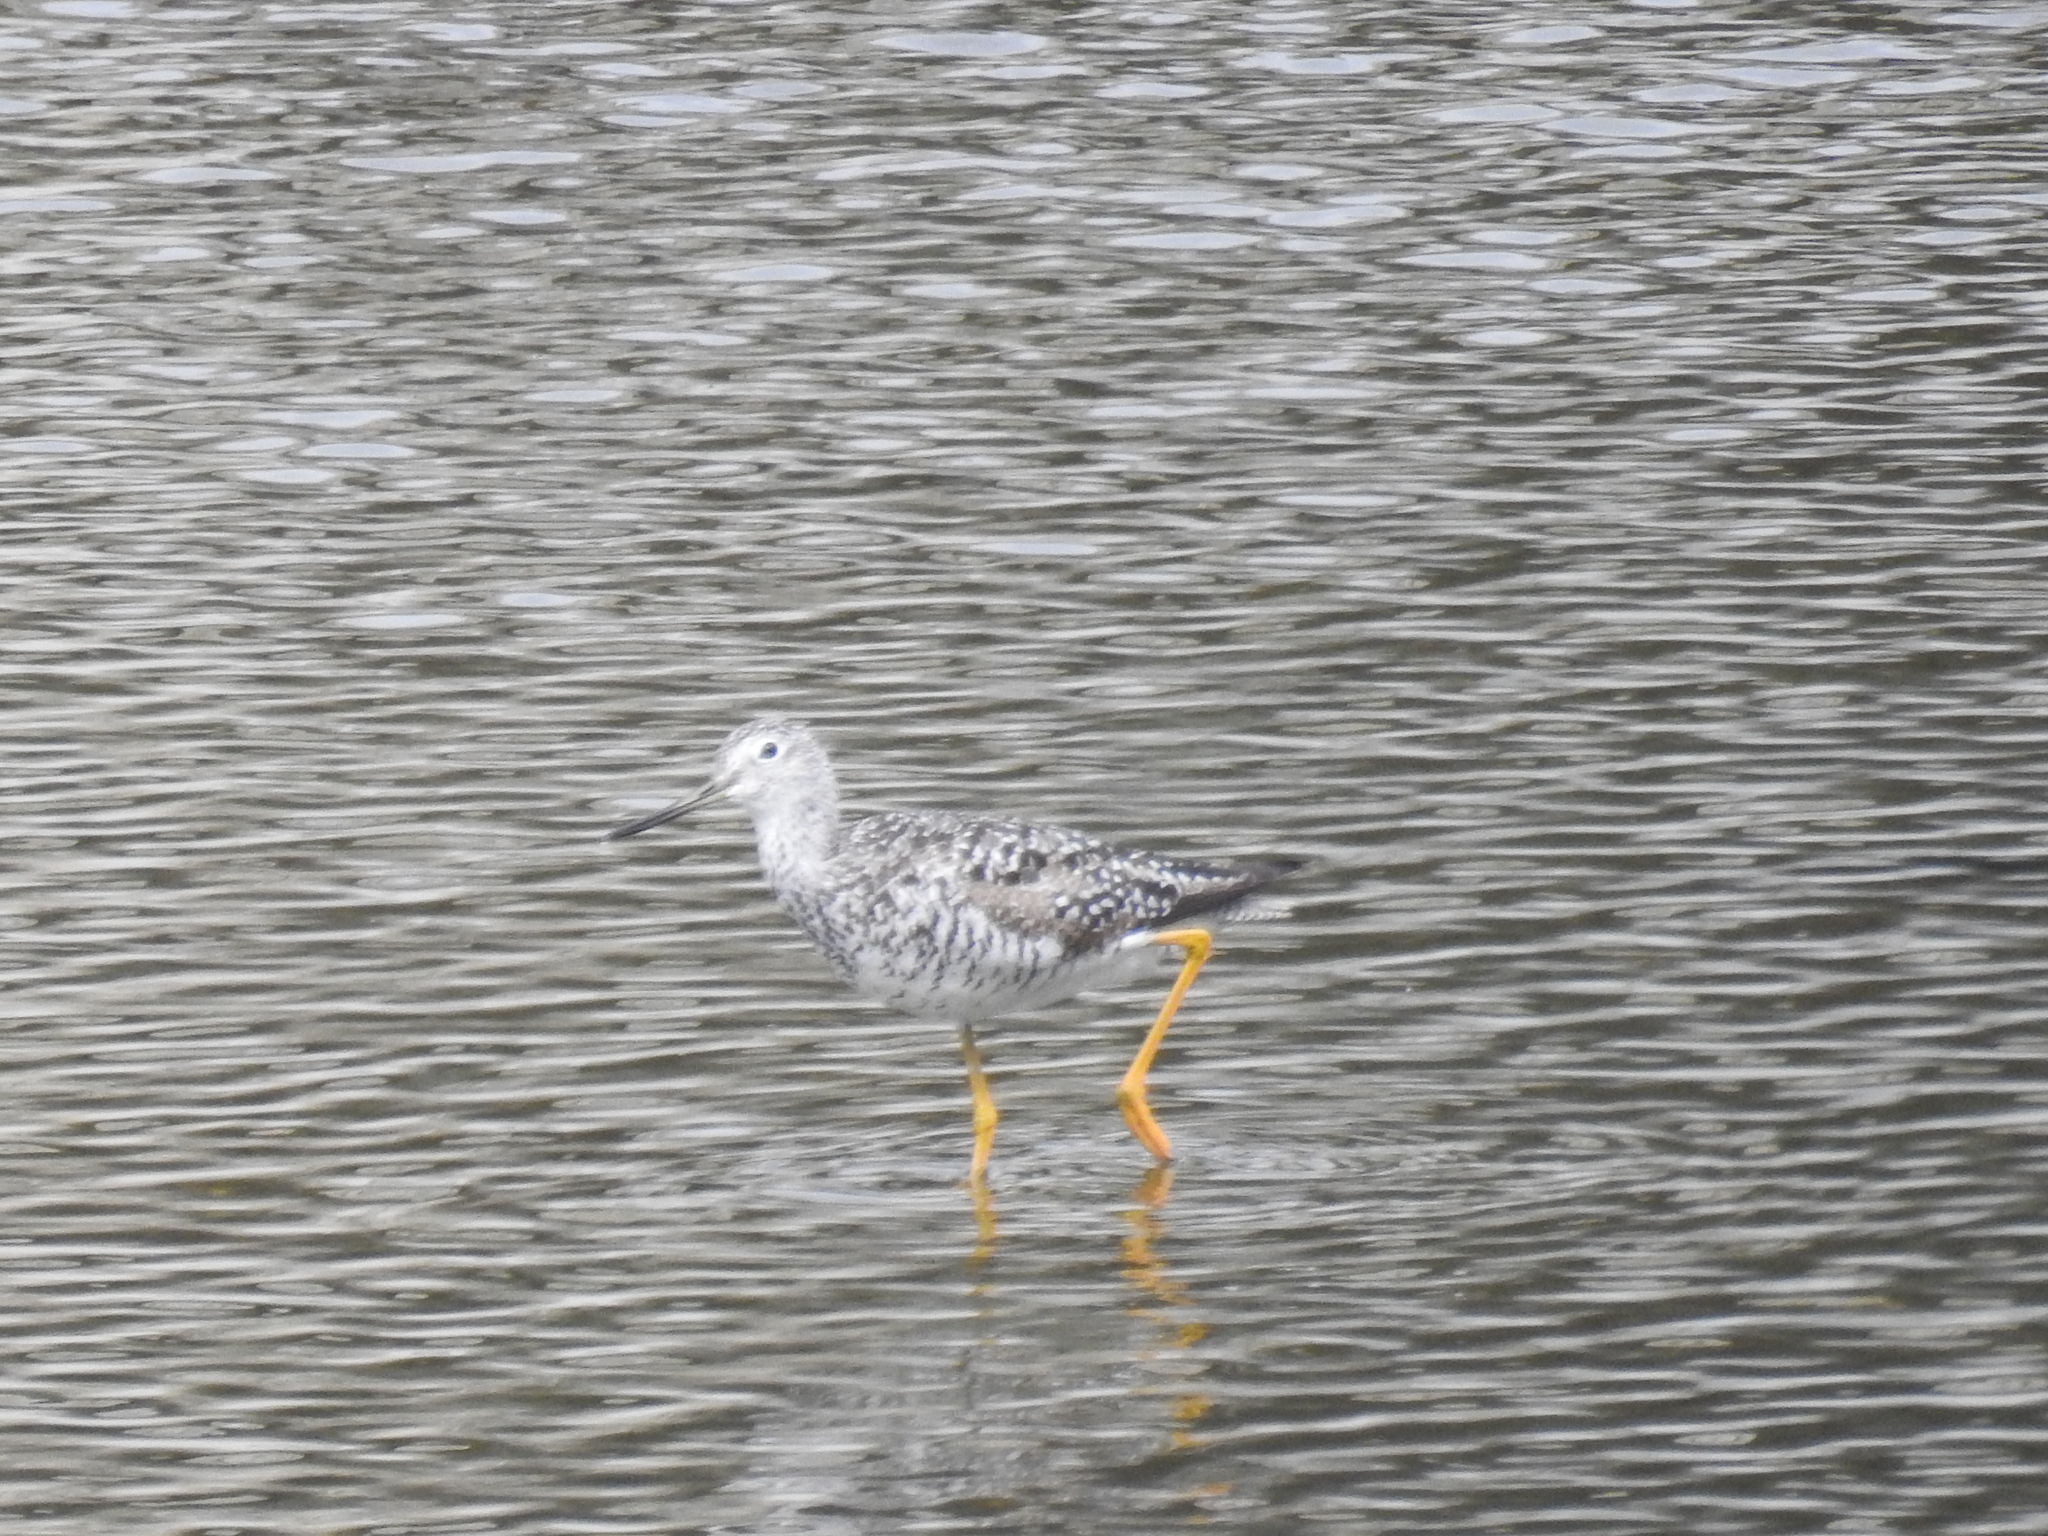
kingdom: Animalia
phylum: Chordata
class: Aves
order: Charadriiformes
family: Scolopacidae
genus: Tringa
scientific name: Tringa melanoleuca
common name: Greater yellowlegs
